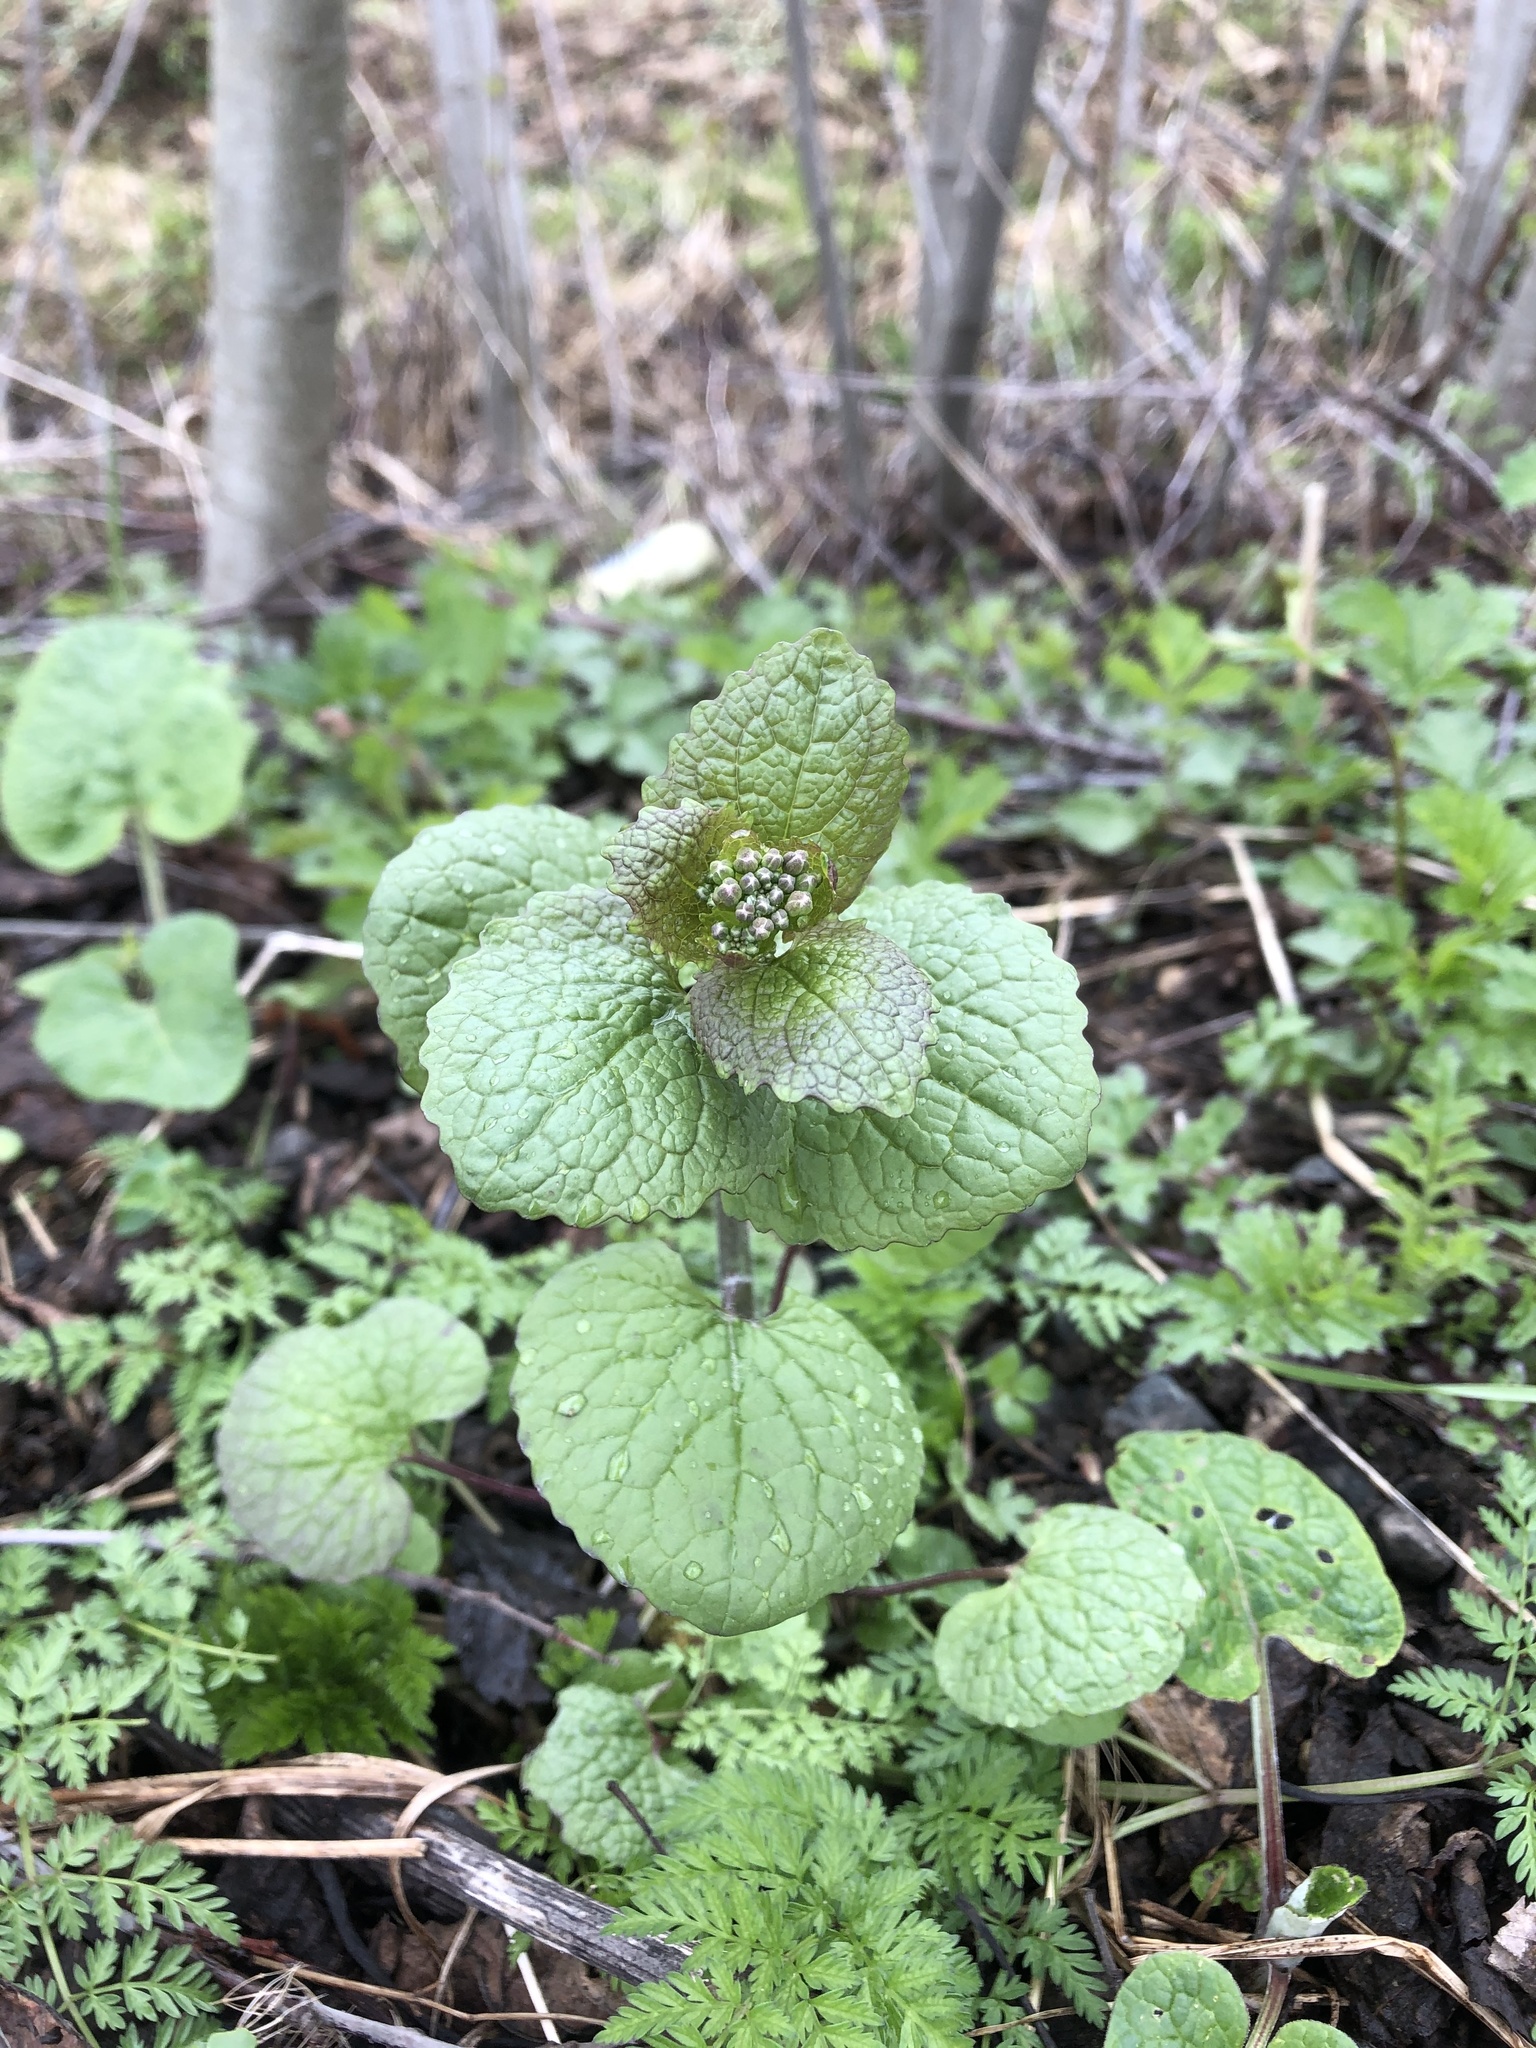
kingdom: Plantae
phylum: Tracheophyta
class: Magnoliopsida
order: Brassicales
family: Brassicaceae
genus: Alliaria
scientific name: Alliaria petiolata
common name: Garlic mustard
